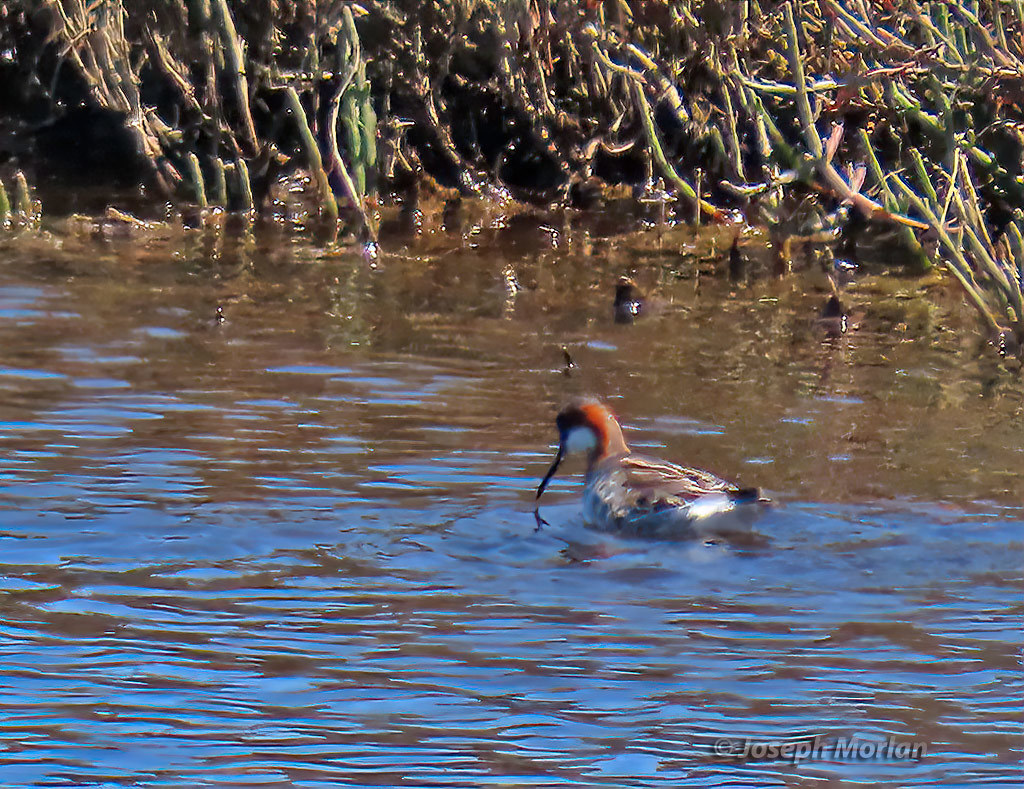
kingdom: Animalia
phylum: Chordata
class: Aves
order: Charadriiformes
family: Scolopacidae
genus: Phalaropus
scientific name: Phalaropus lobatus
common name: Red-necked phalarope
